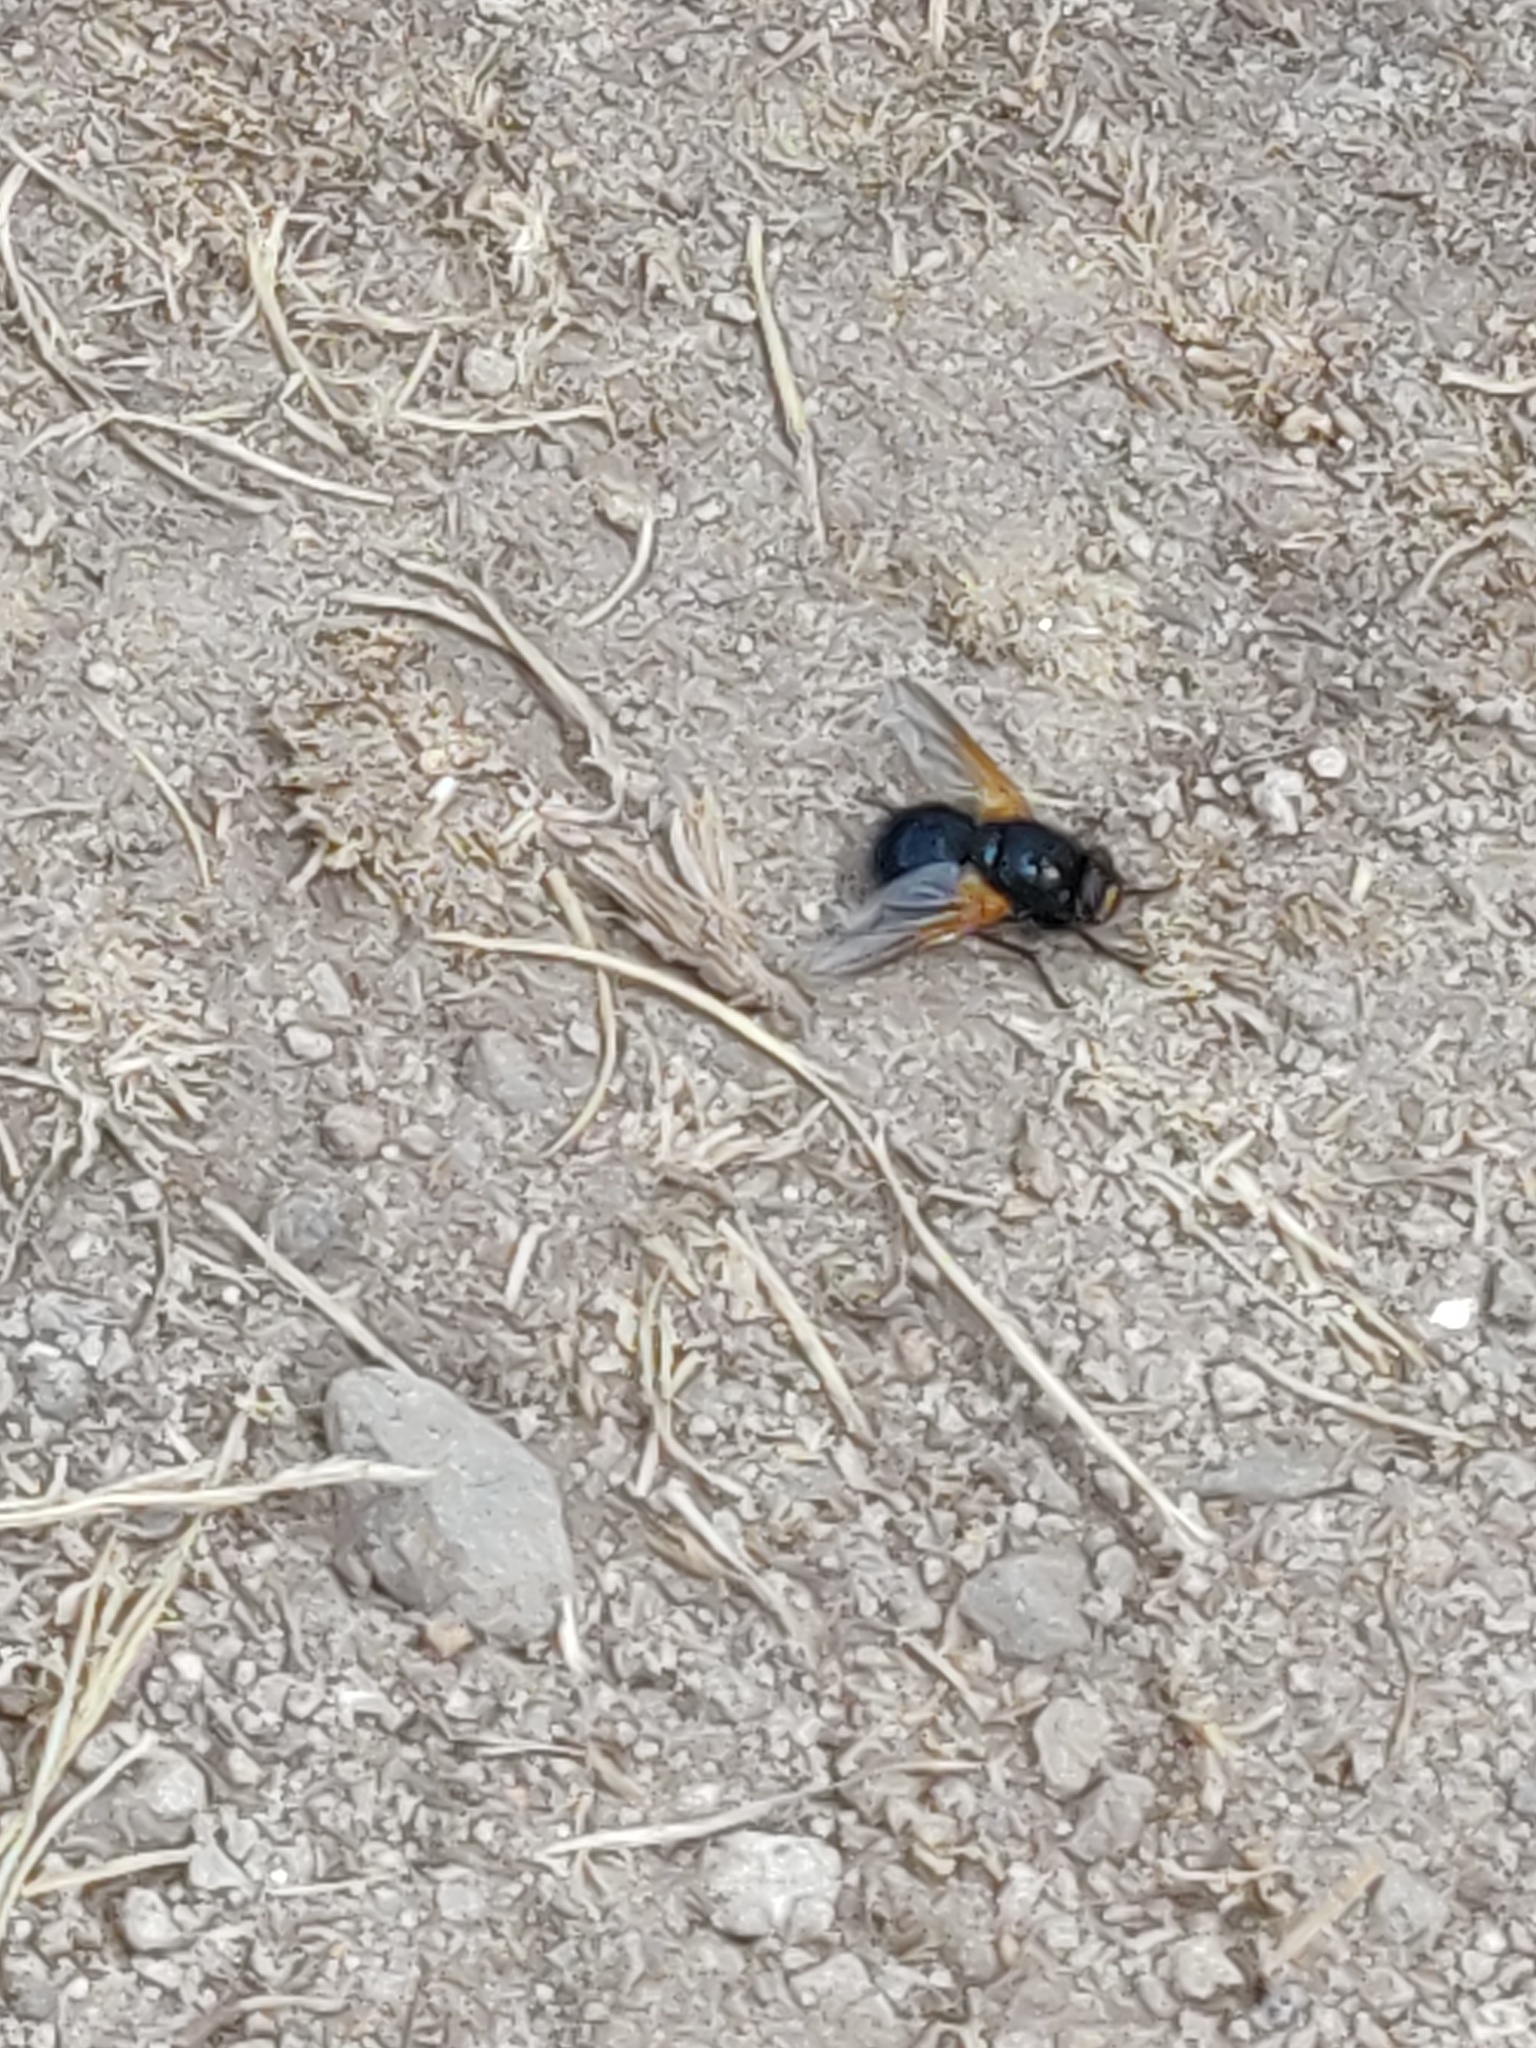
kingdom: Animalia
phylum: Arthropoda
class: Insecta
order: Diptera
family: Muscidae
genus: Mesembrina
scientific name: Mesembrina meridiana
